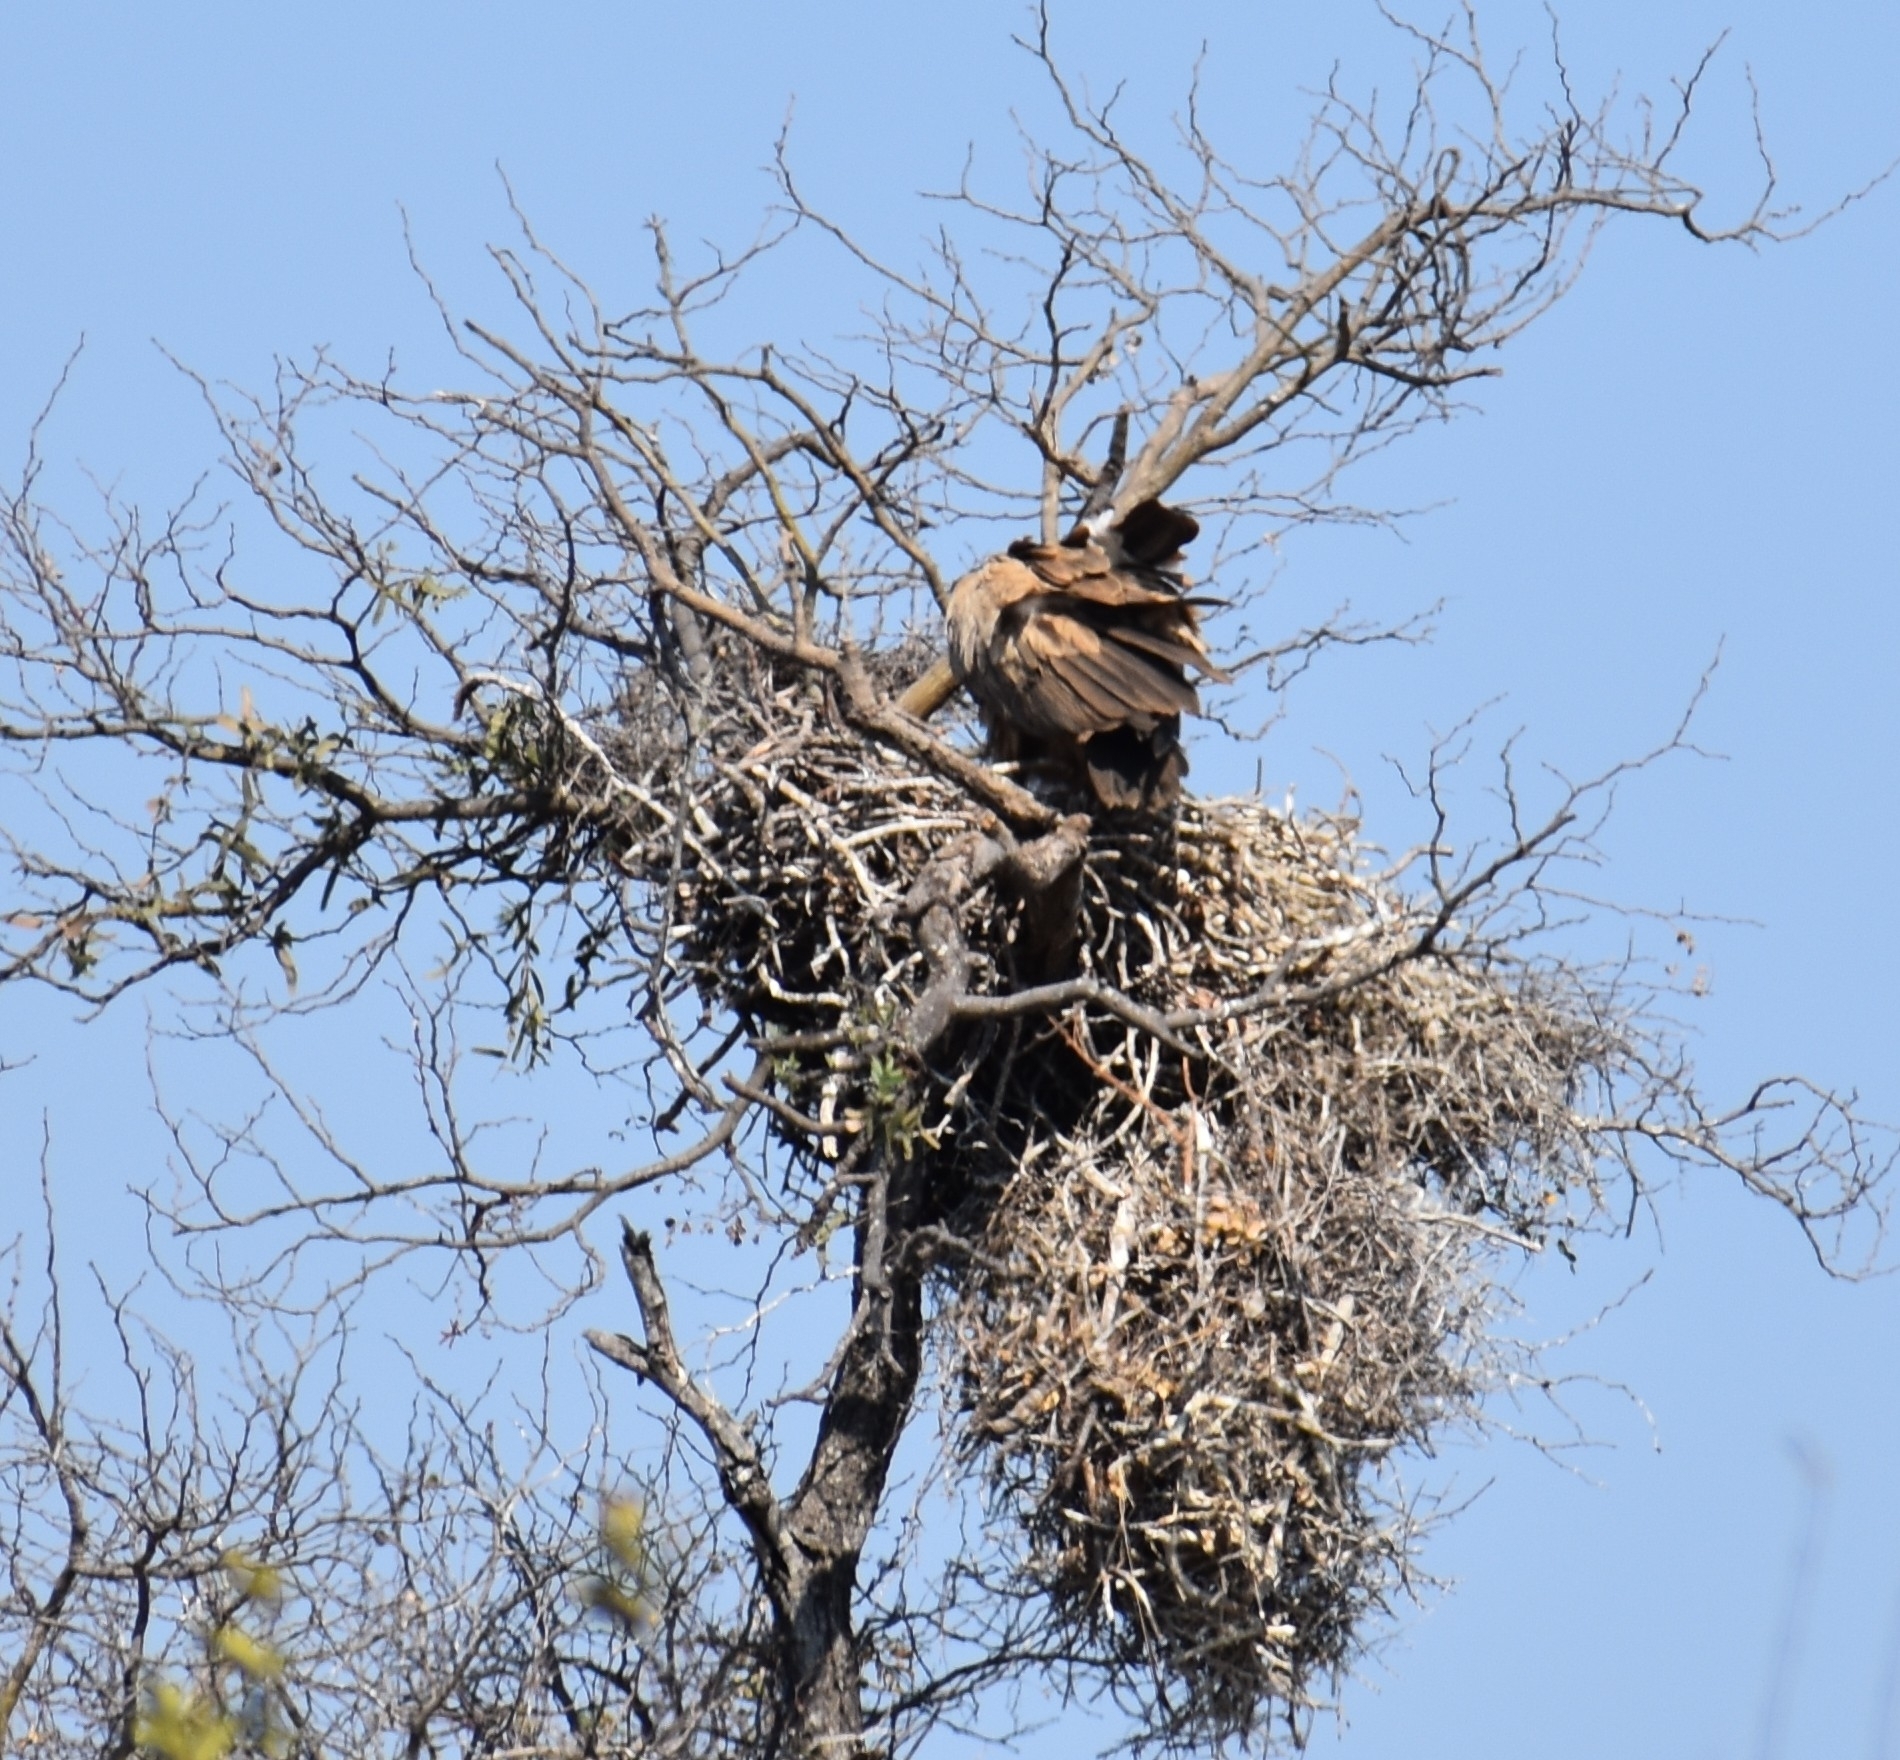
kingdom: Animalia
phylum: Chordata
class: Aves
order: Accipitriformes
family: Accipitridae
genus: Gyps
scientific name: Gyps africanus
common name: White-backed vulture
